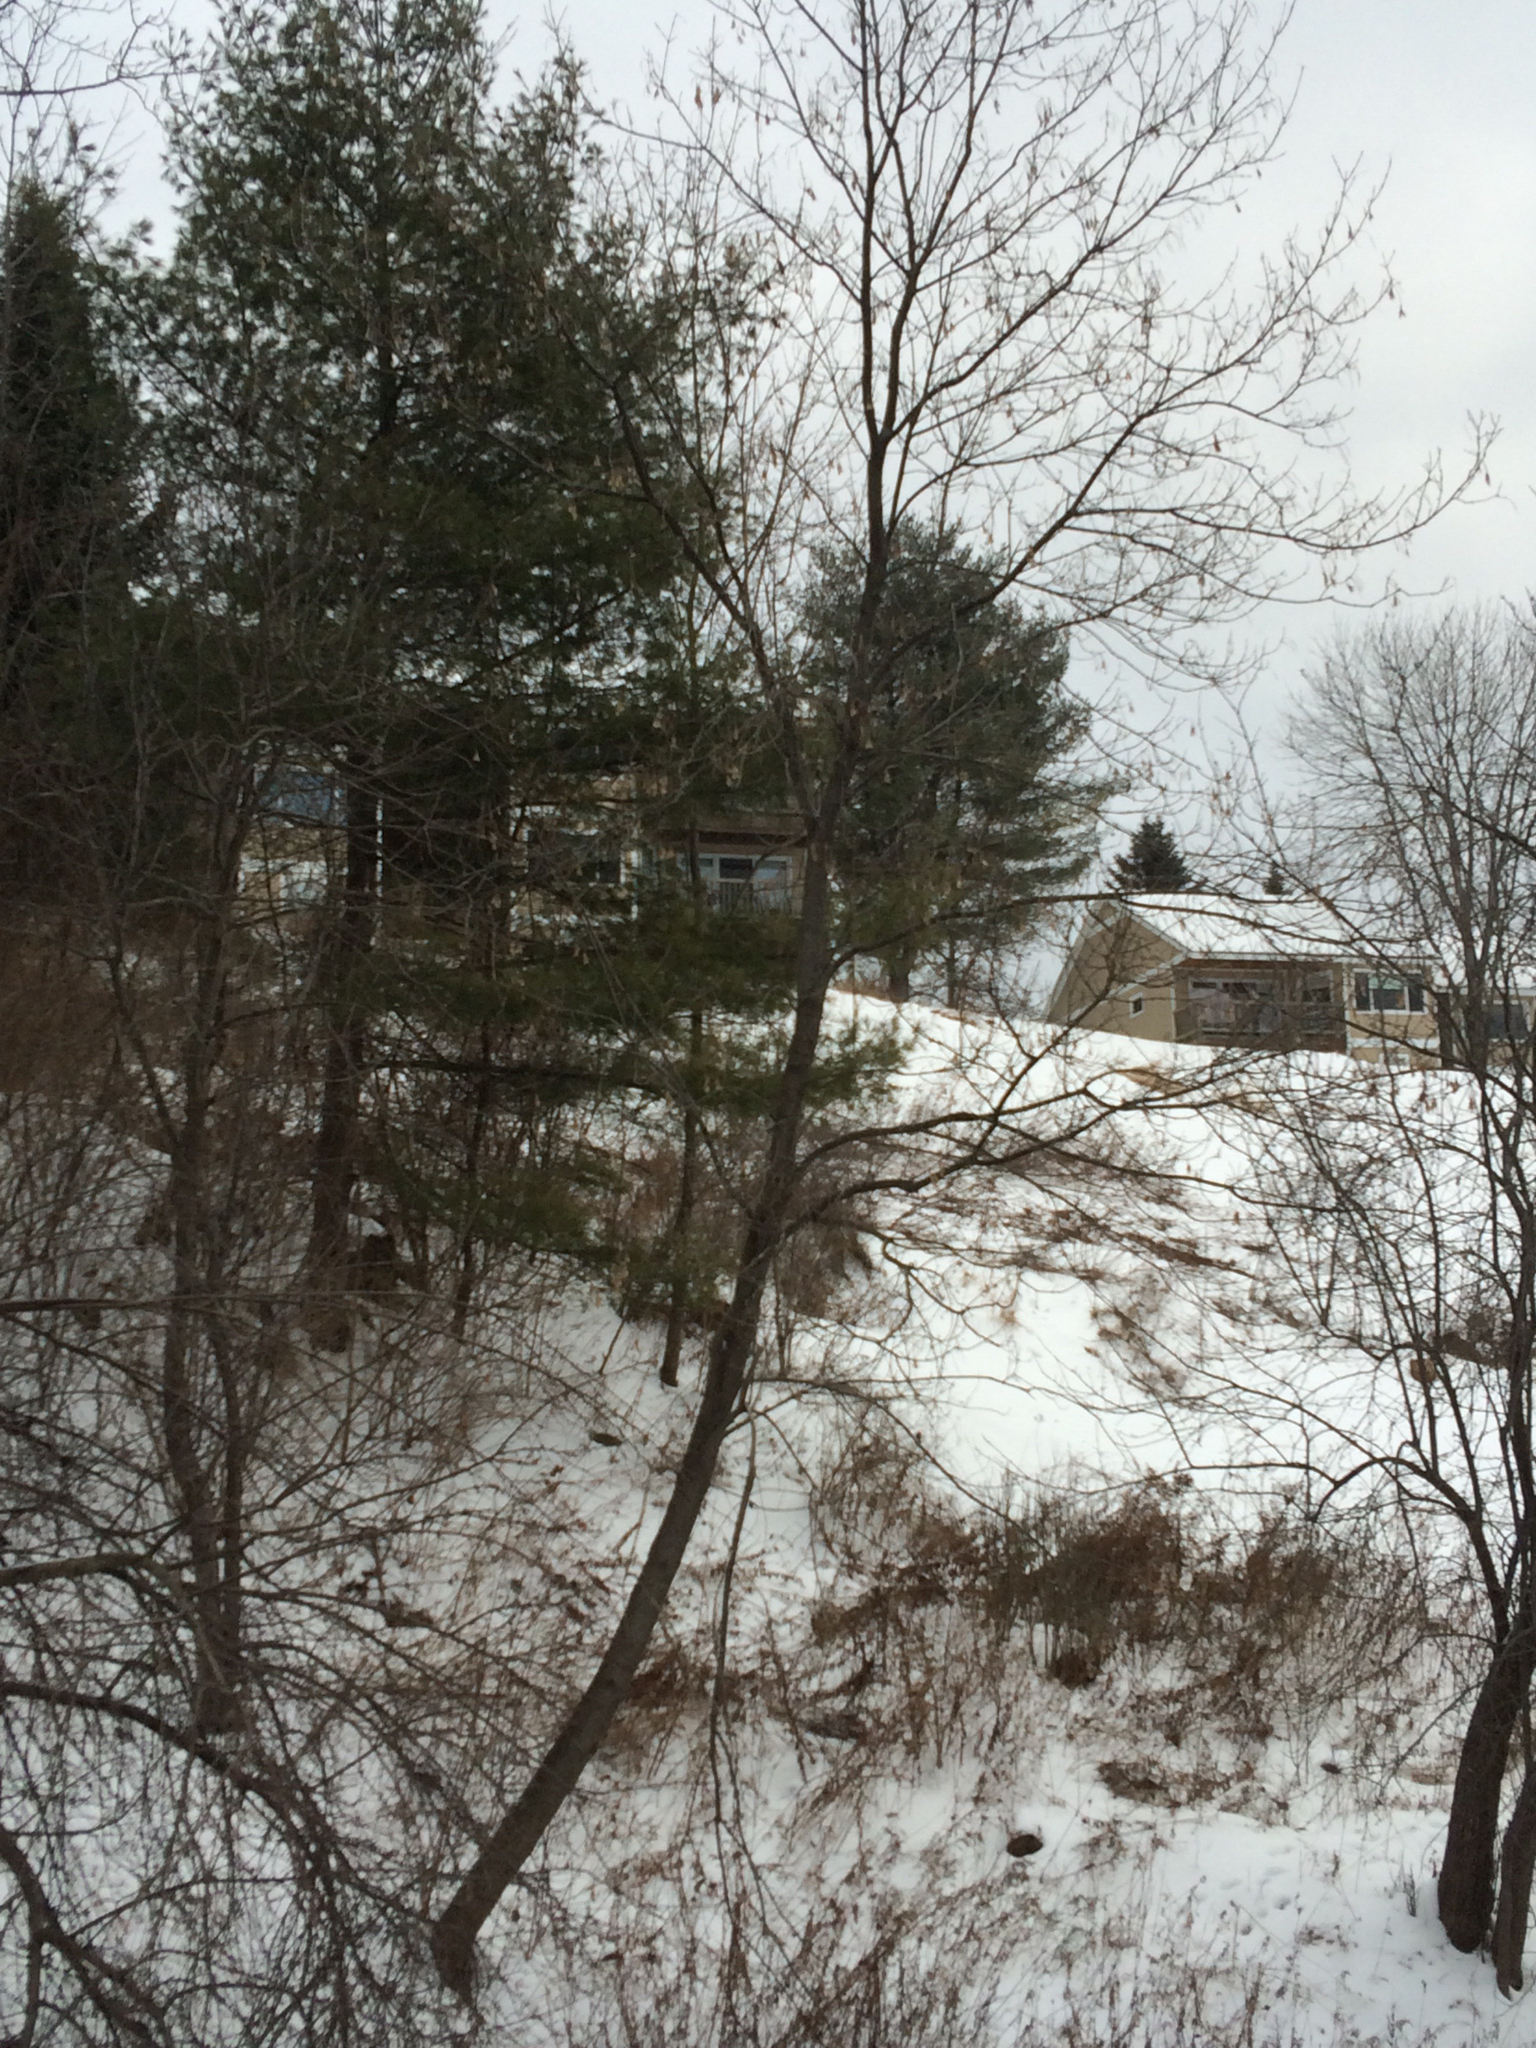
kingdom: Plantae
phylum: Tracheophyta
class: Magnoliopsida
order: Sapindales
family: Sapindaceae
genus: Acer
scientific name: Acer negundo
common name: Ashleaf maple
